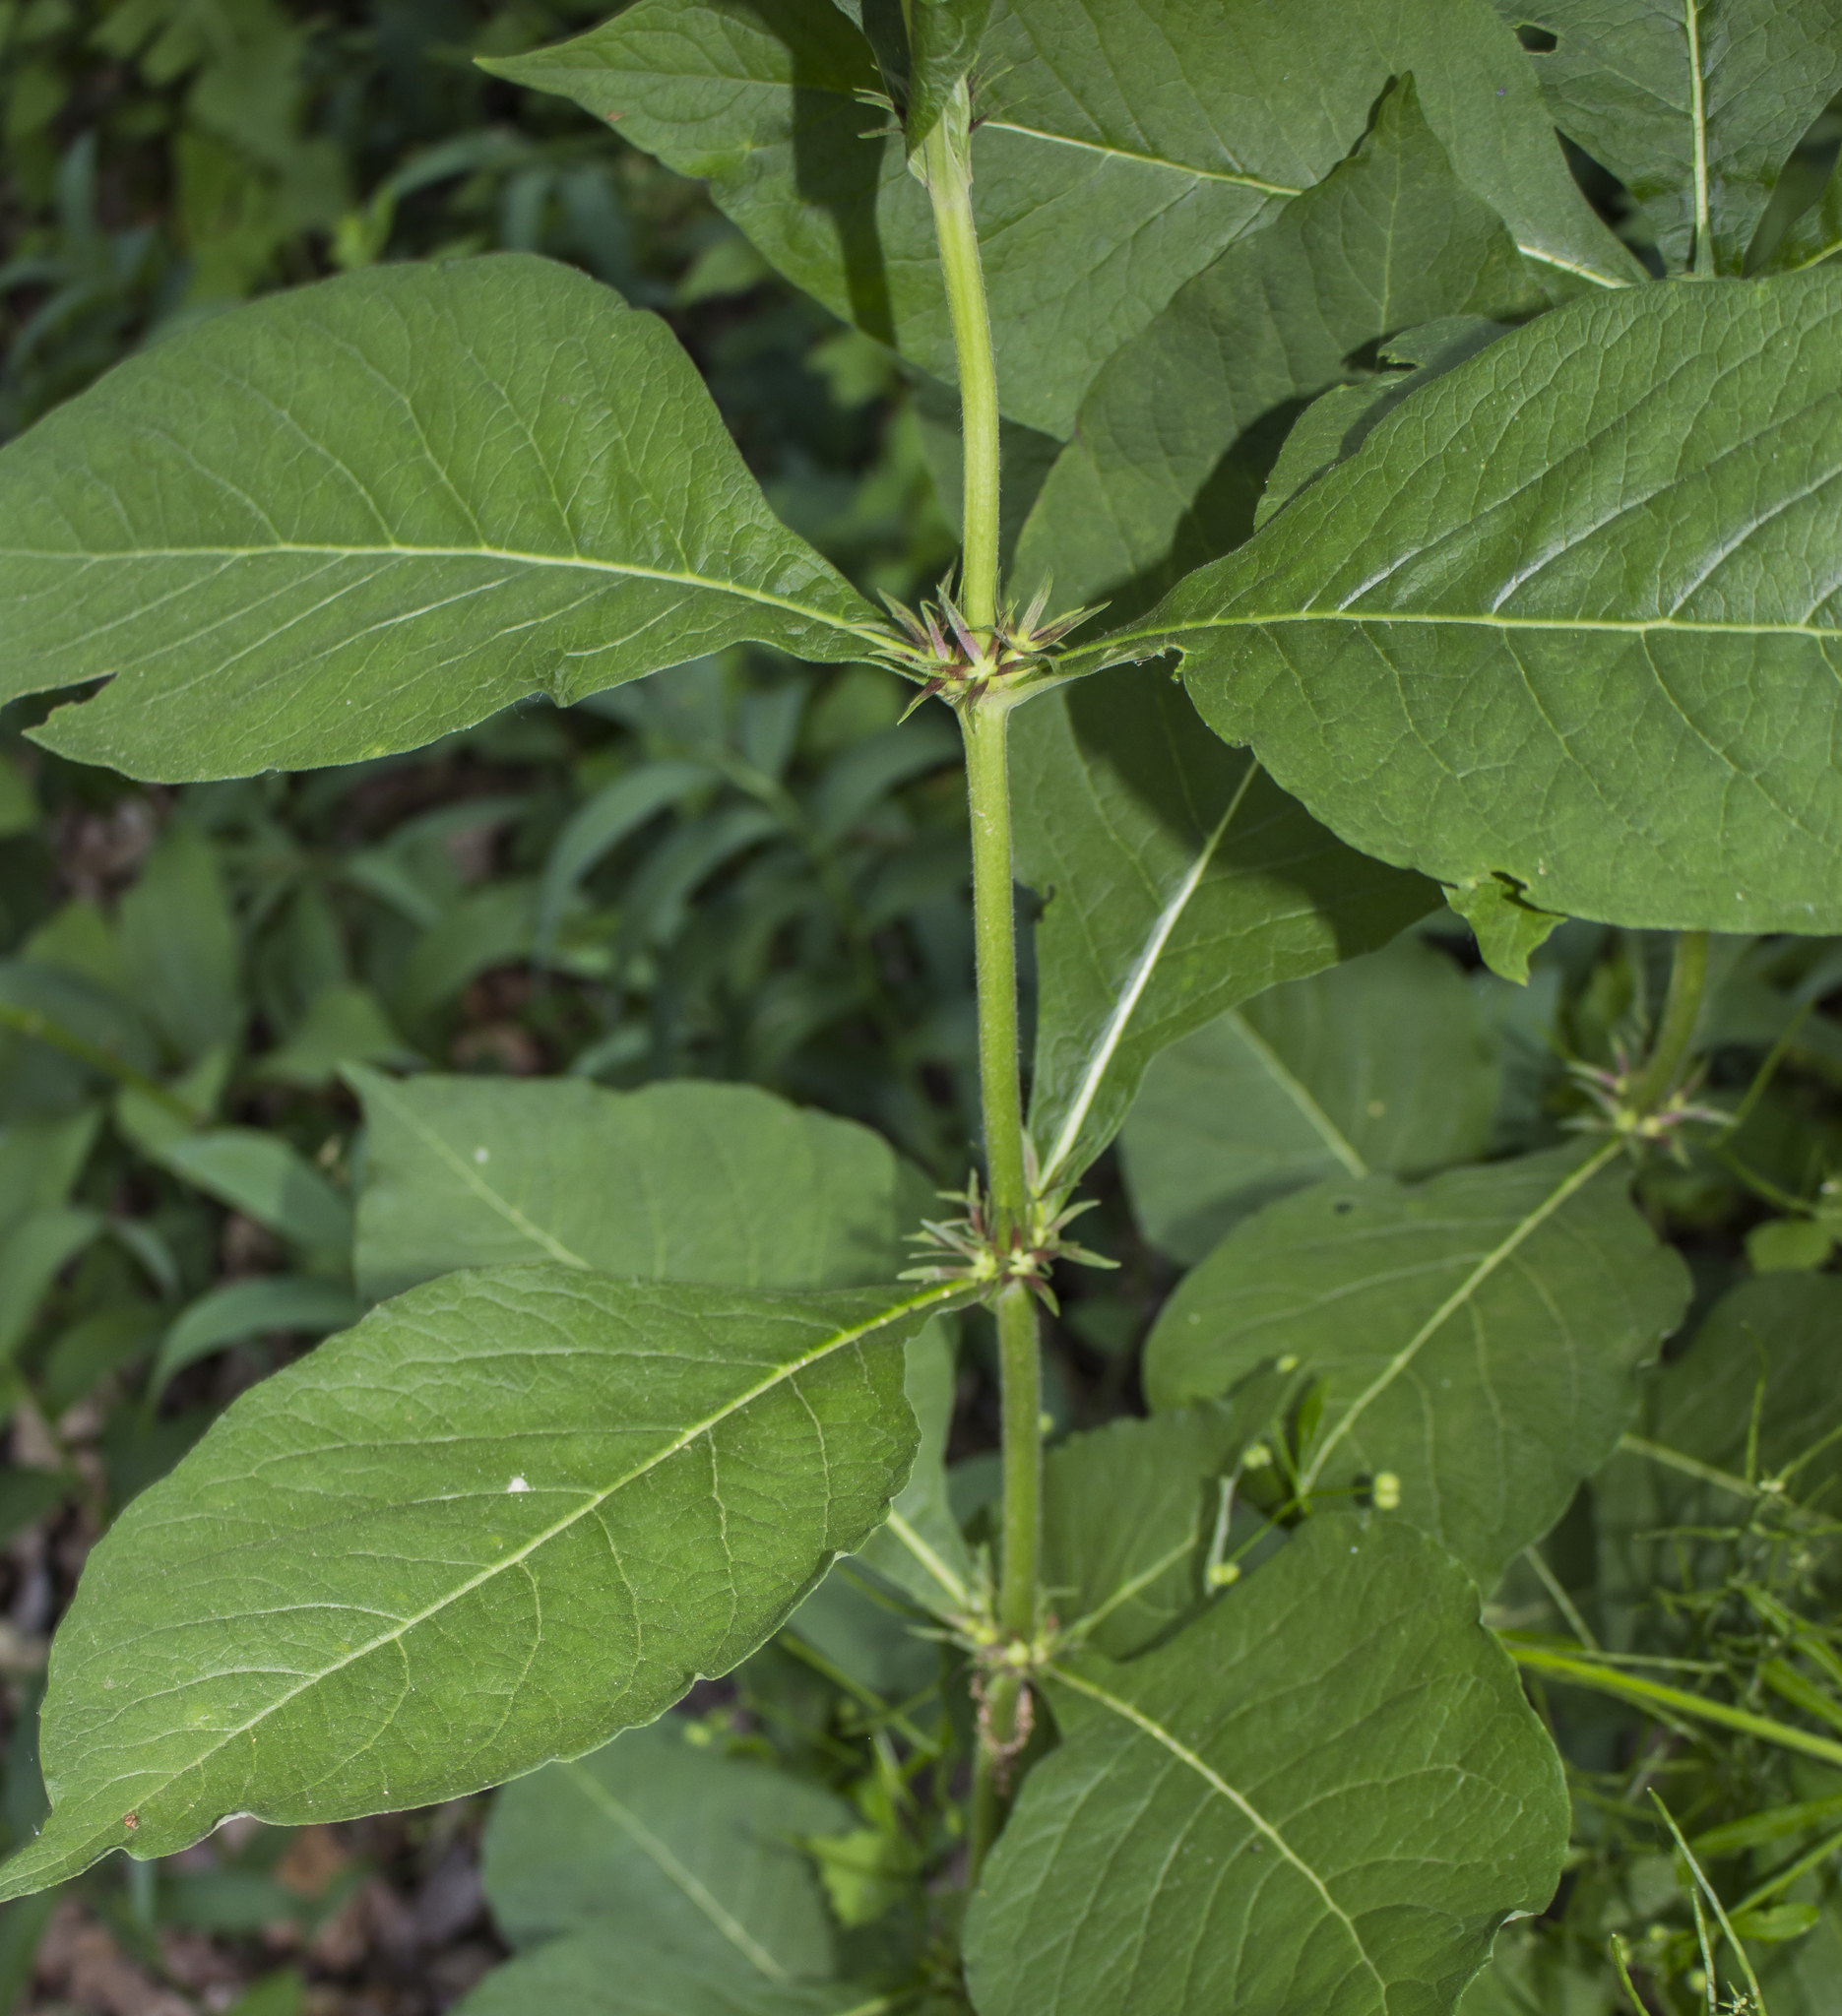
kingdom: Plantae
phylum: Tracheophyta
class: Magnoliopsida
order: Dipsacales
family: Caprifoliaceae
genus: Triosteum
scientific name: Triosteum aurantiacum
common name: Coffee tinker's-weed
